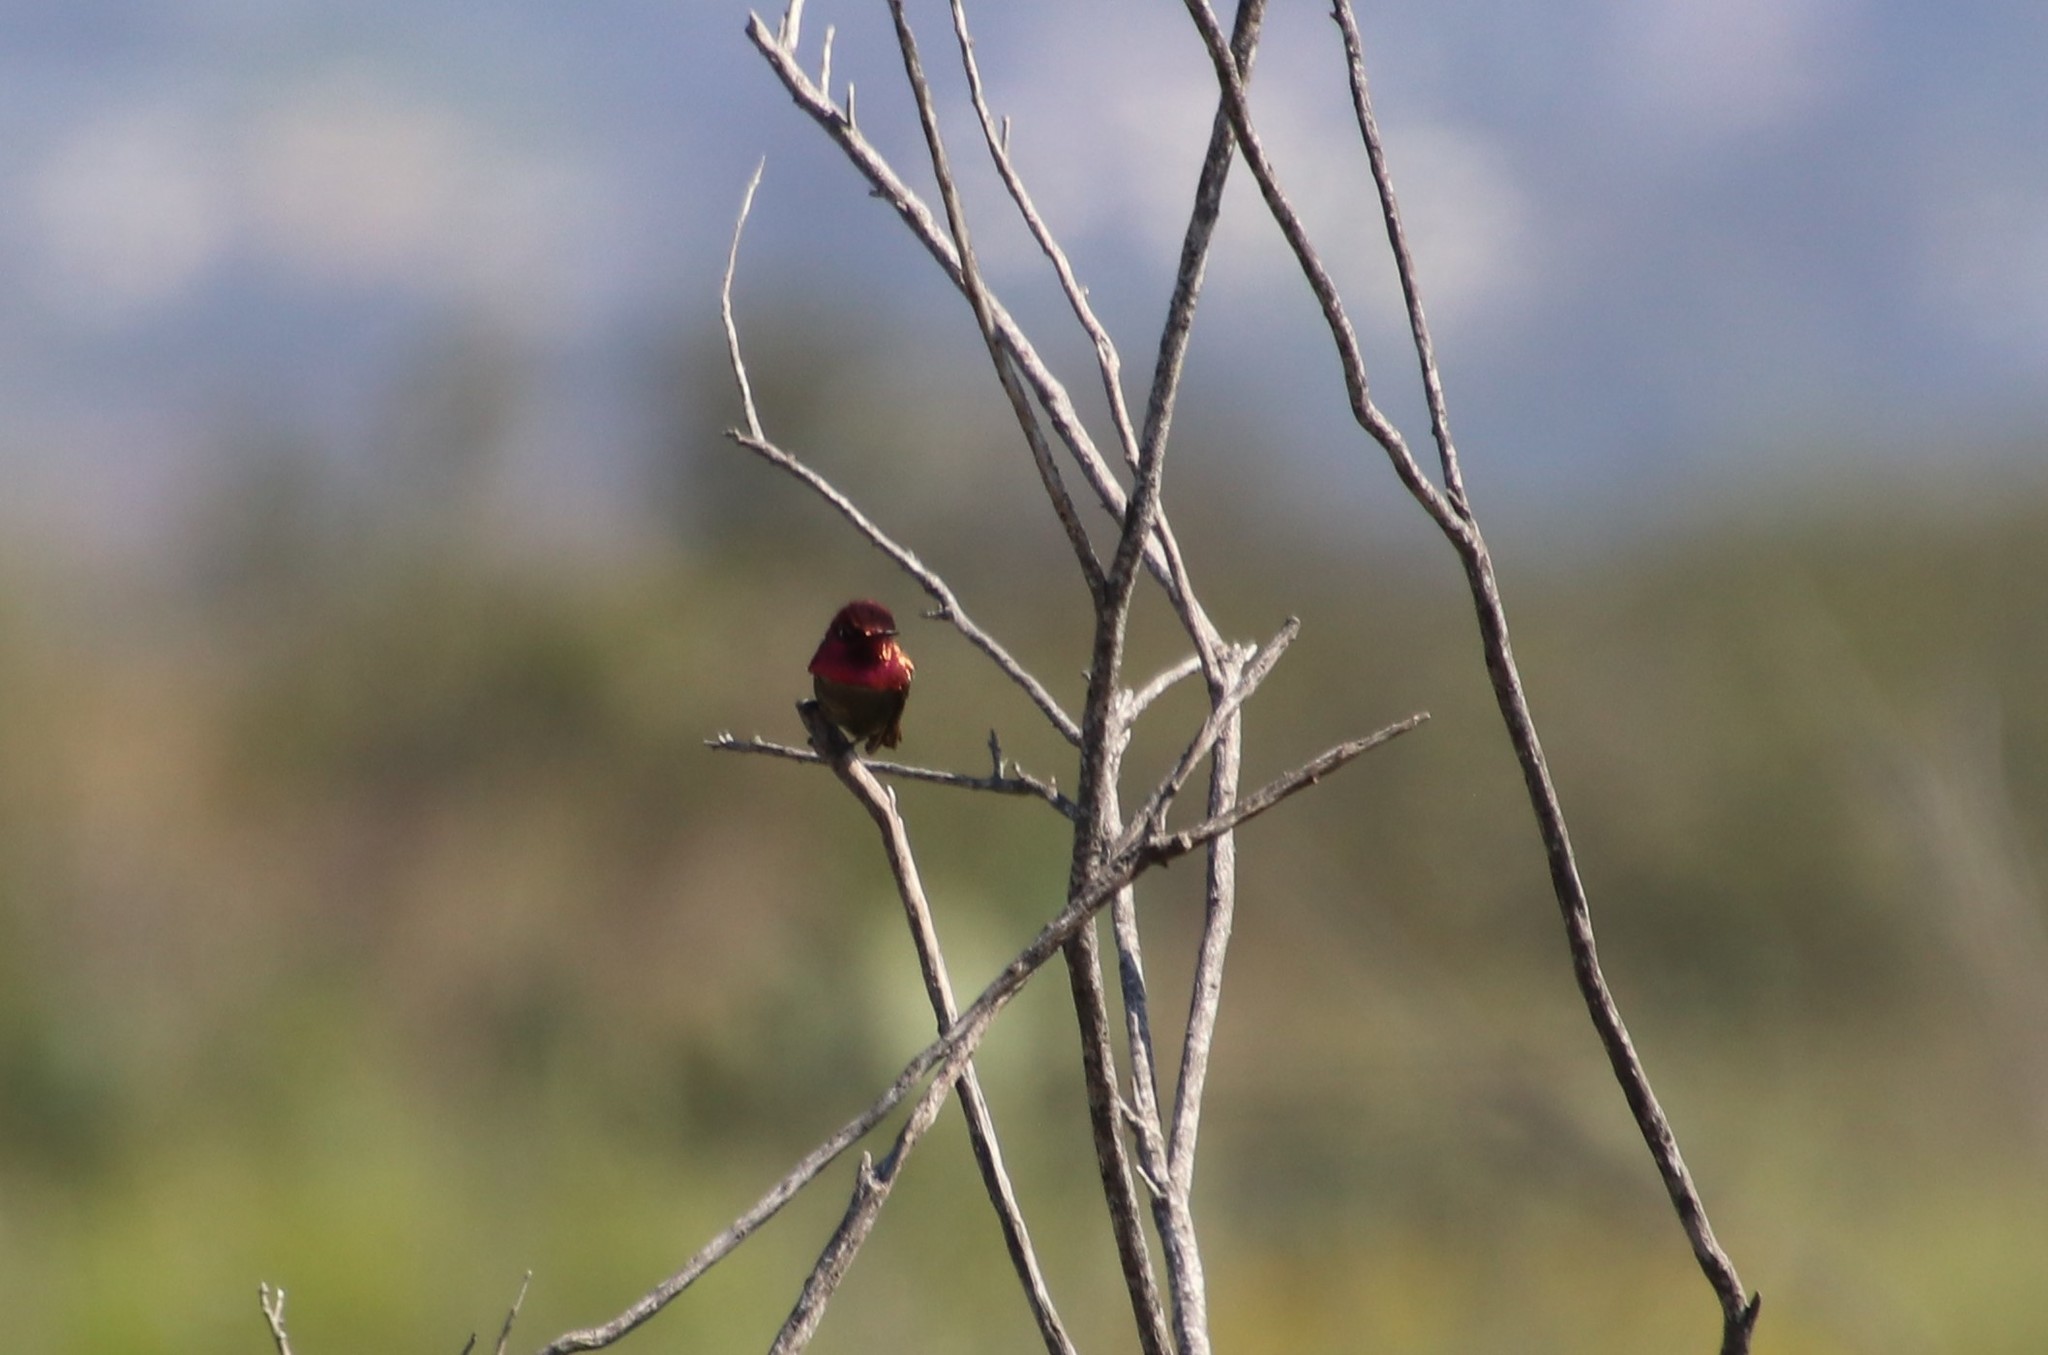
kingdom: Animalia
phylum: Chordata
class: Aves
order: Apodiformes
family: Trochilidae
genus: Calypte
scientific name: Calypte anna
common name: Anna's hummingbird
